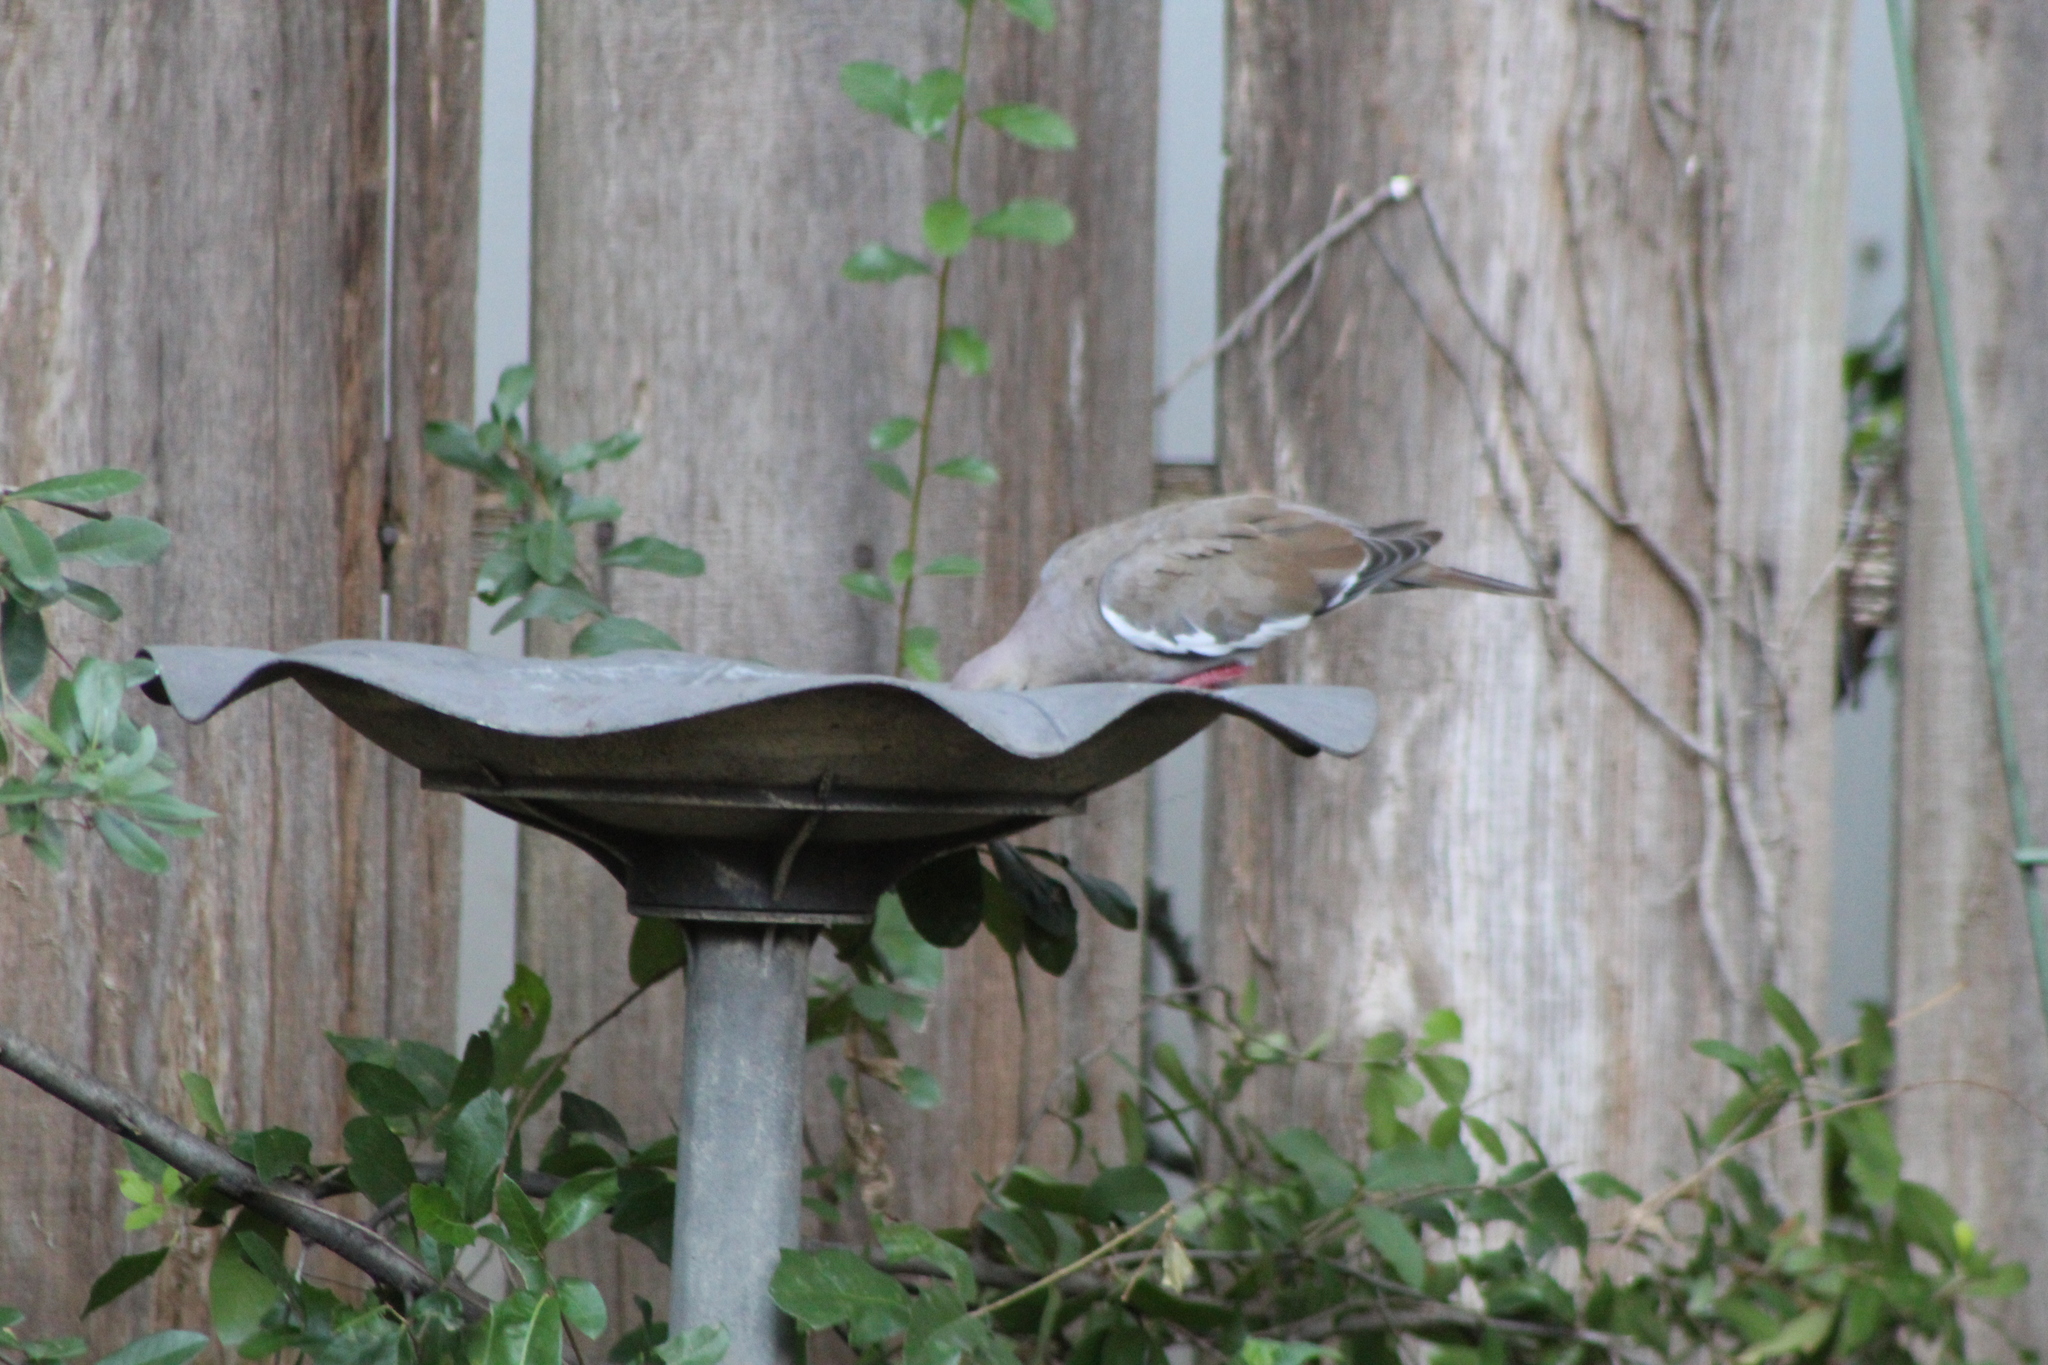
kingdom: Animalia
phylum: Chordata
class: Aves
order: Columbiformes
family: Columbidae
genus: Zenaida
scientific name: Zenaida asiatica
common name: White-winged dove
